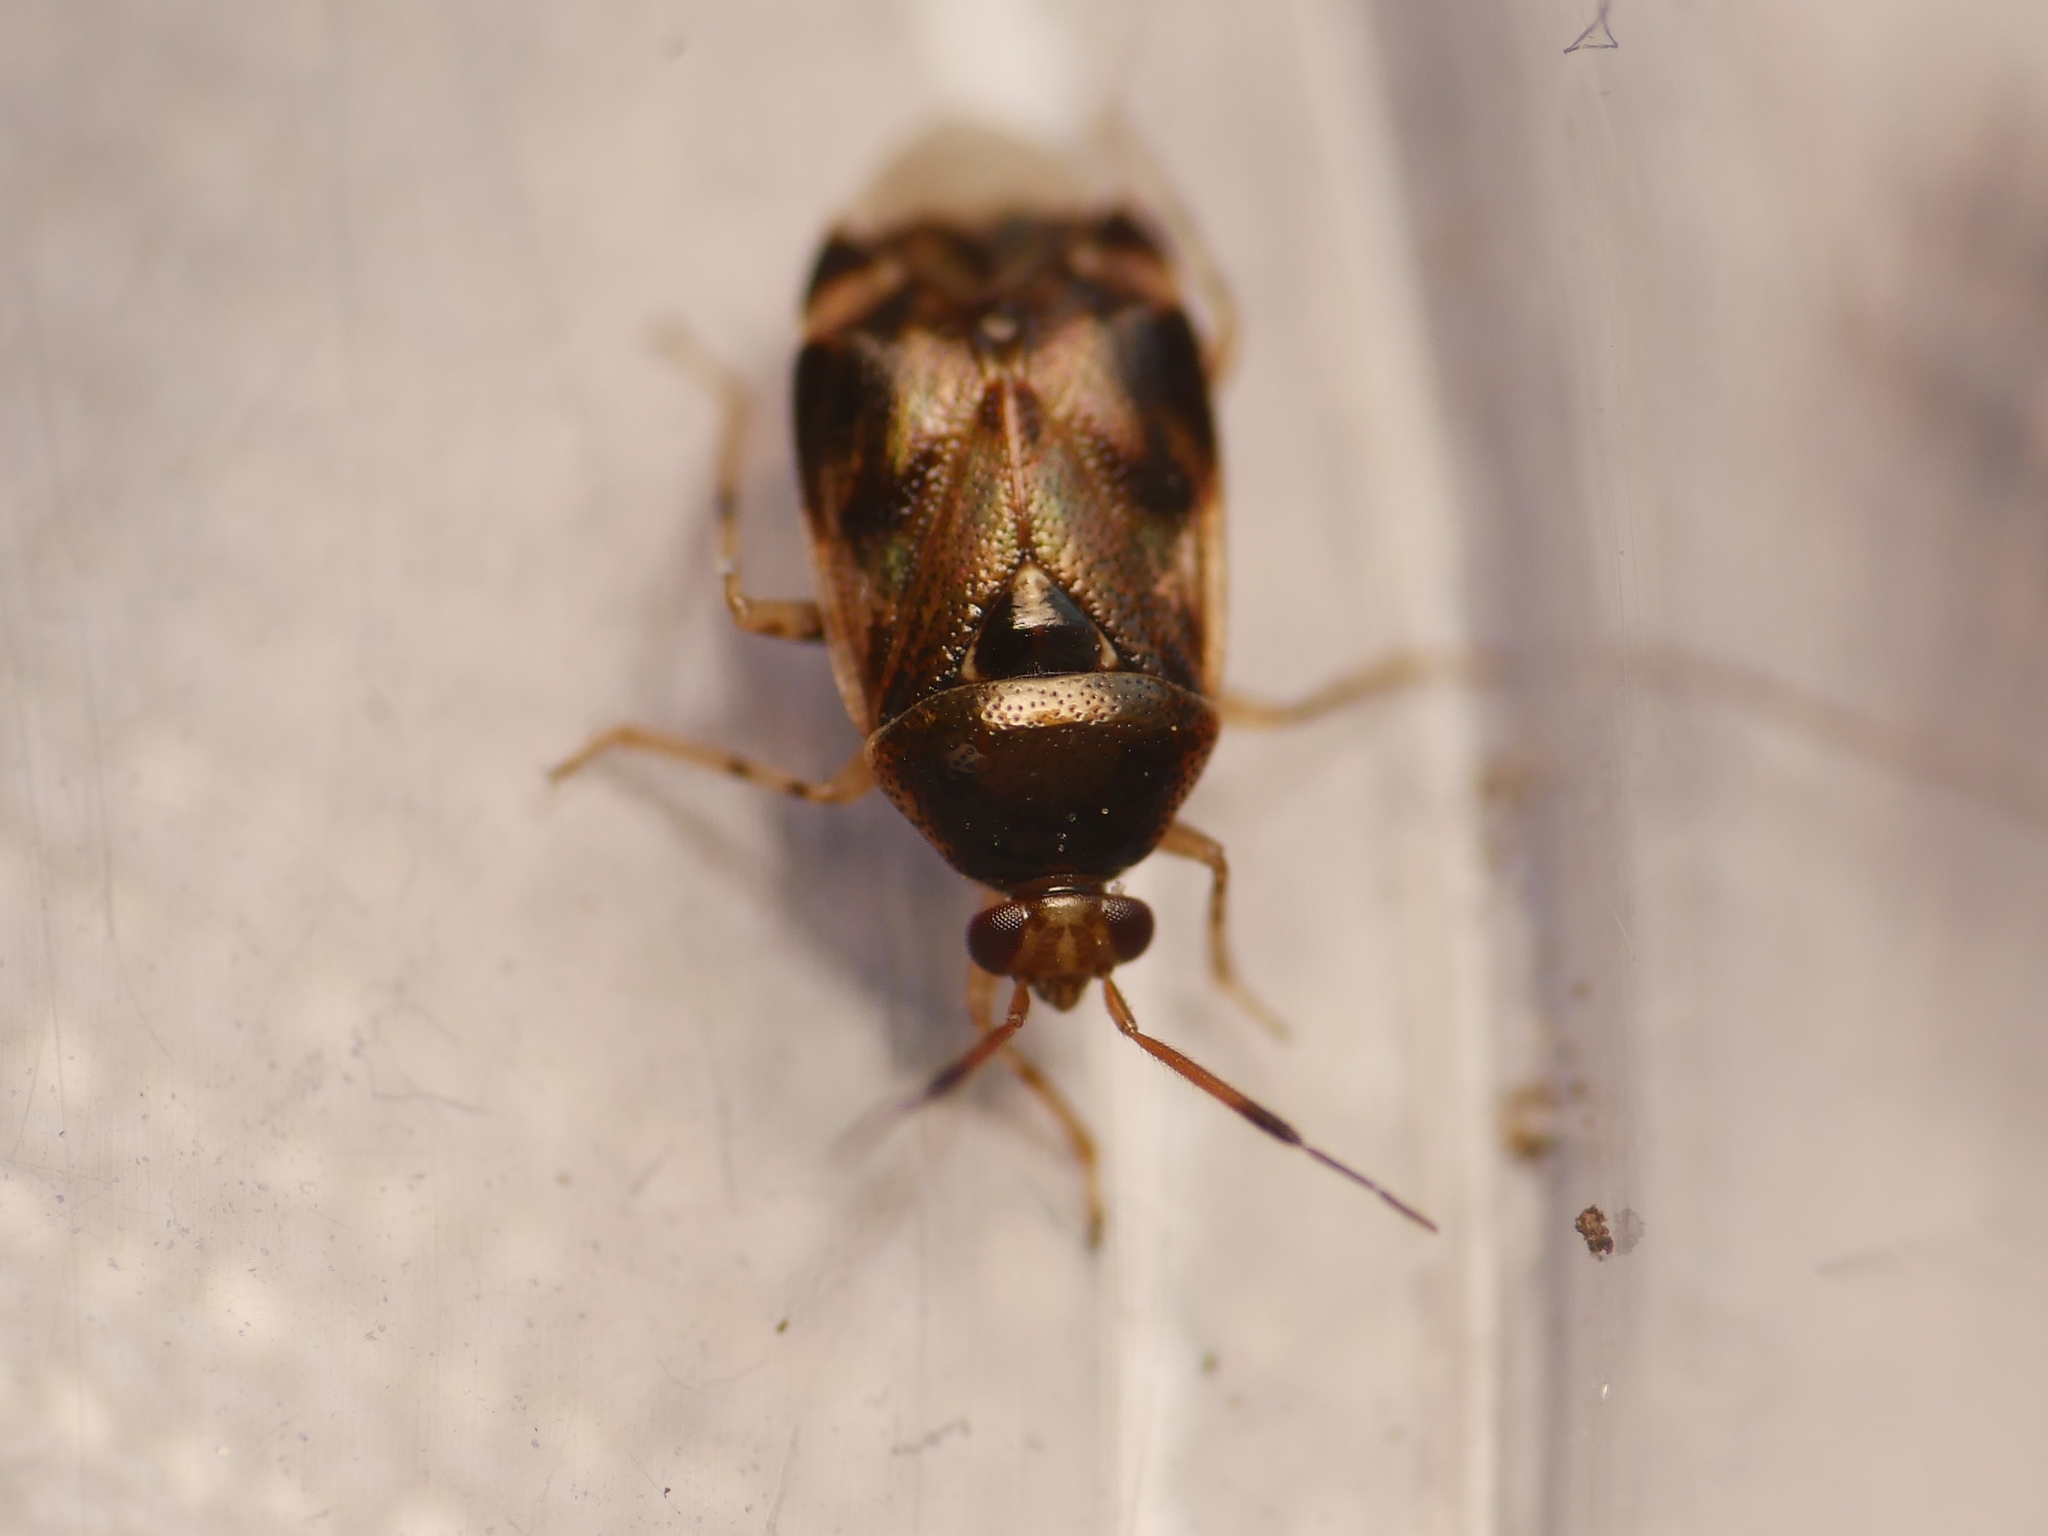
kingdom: Animalia
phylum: Arthropoda
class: Insecta
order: Hemiptera
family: Miridae
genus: Deraeocoris
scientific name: Deraeocoris lutescens
